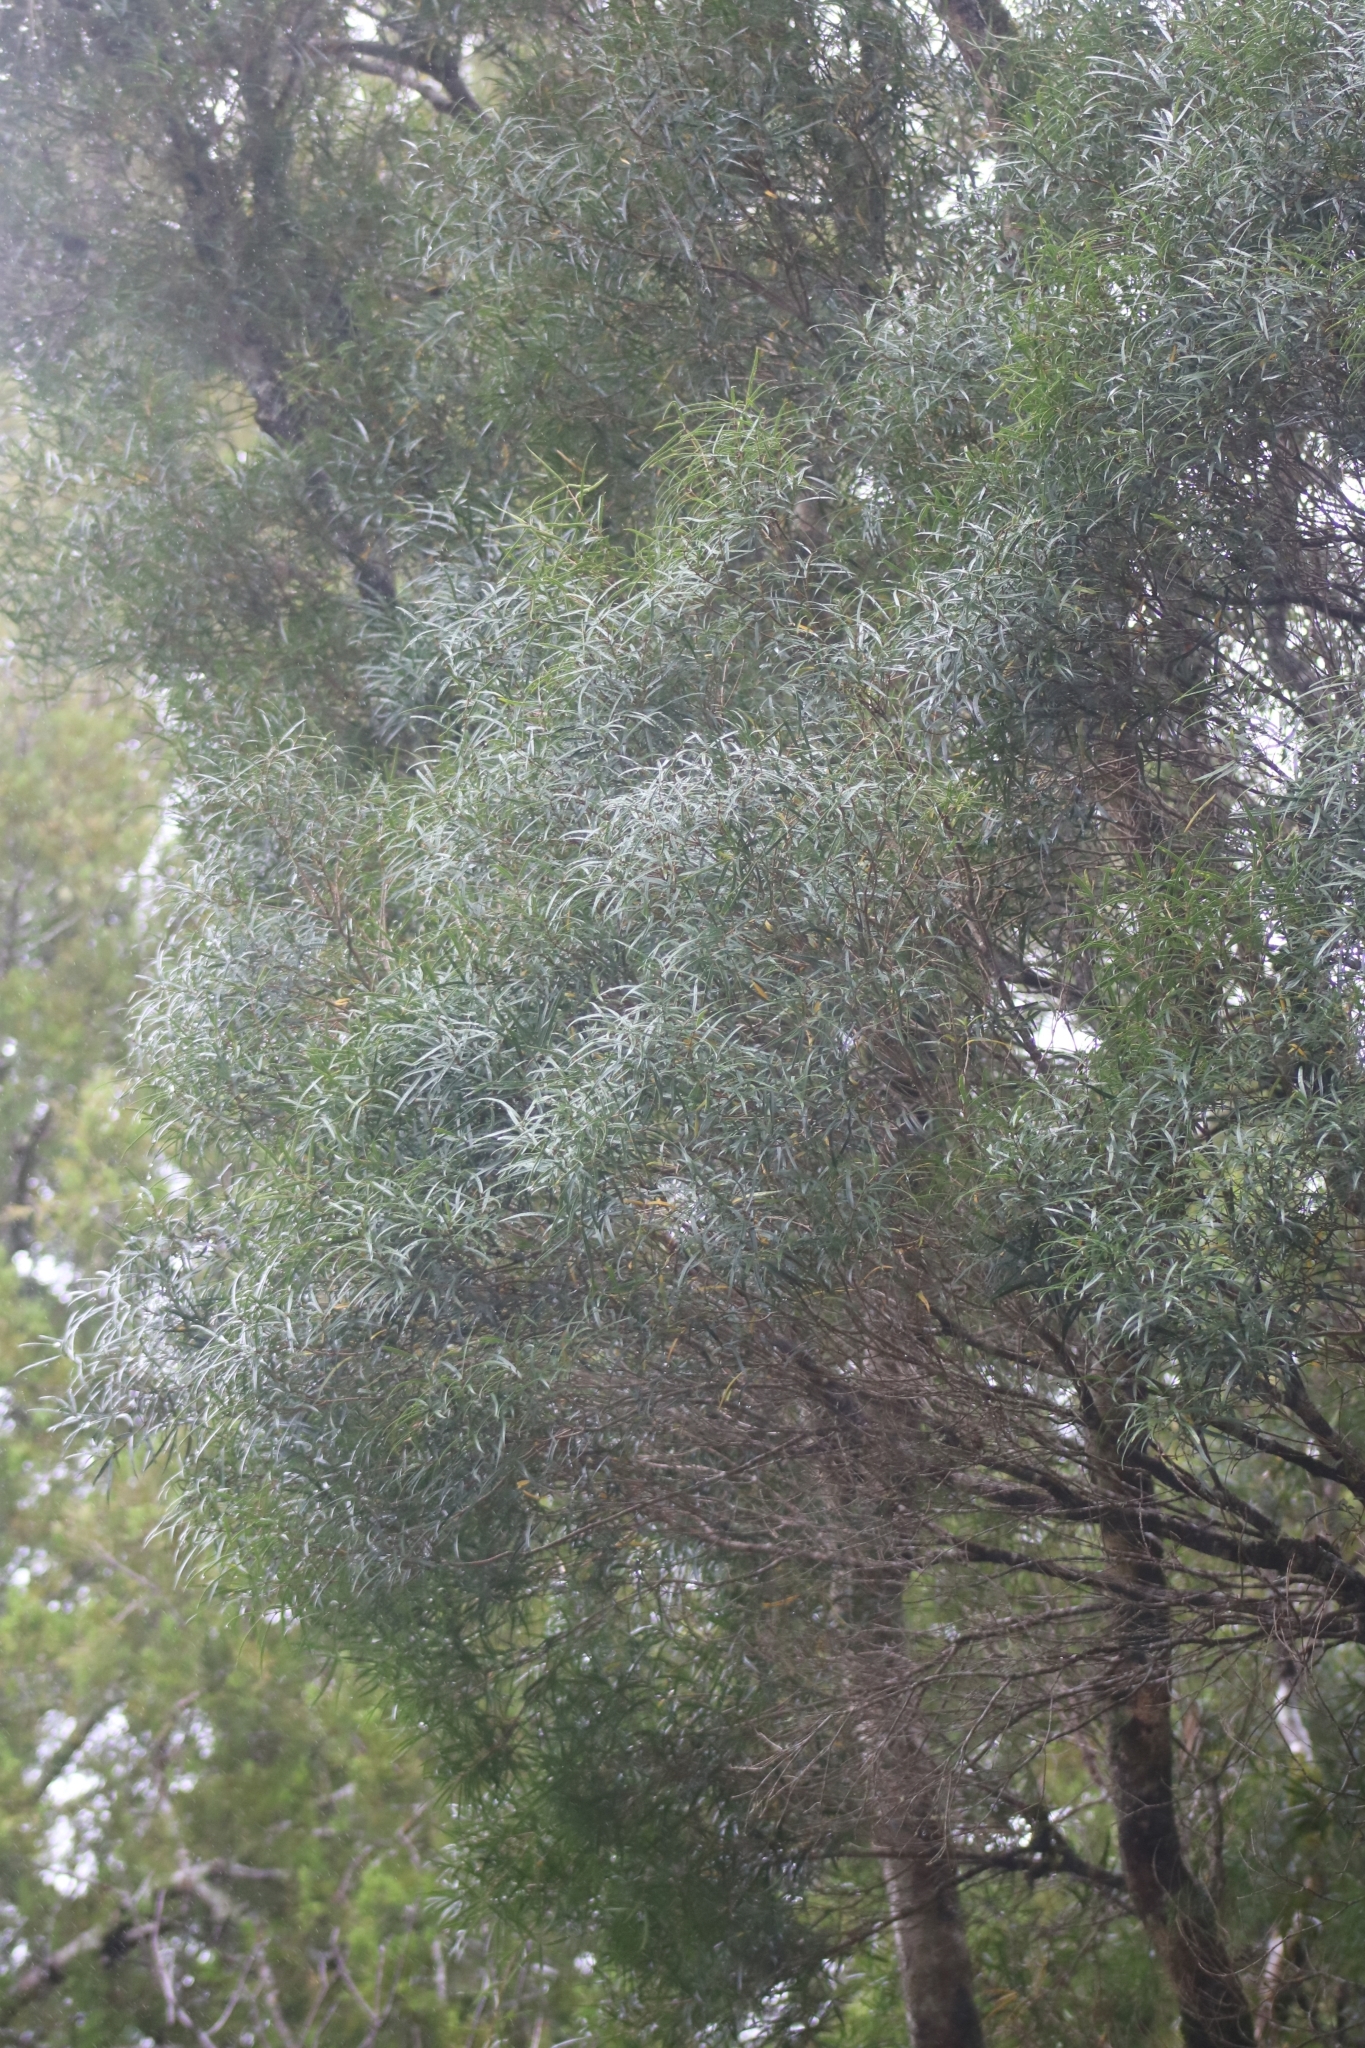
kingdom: Plantae
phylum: Tracheophyta
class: Magnoliopsida
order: Lamiales
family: Oleaceae
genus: Nestegis
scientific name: Nestegis montana
